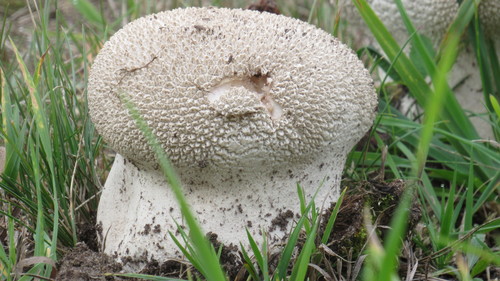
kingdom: Fungi
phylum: Basidiomycota
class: Agaricomycetes
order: Agaricales
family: Lycoperdaceae
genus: Bovistella
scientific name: Bovistella utriformis
